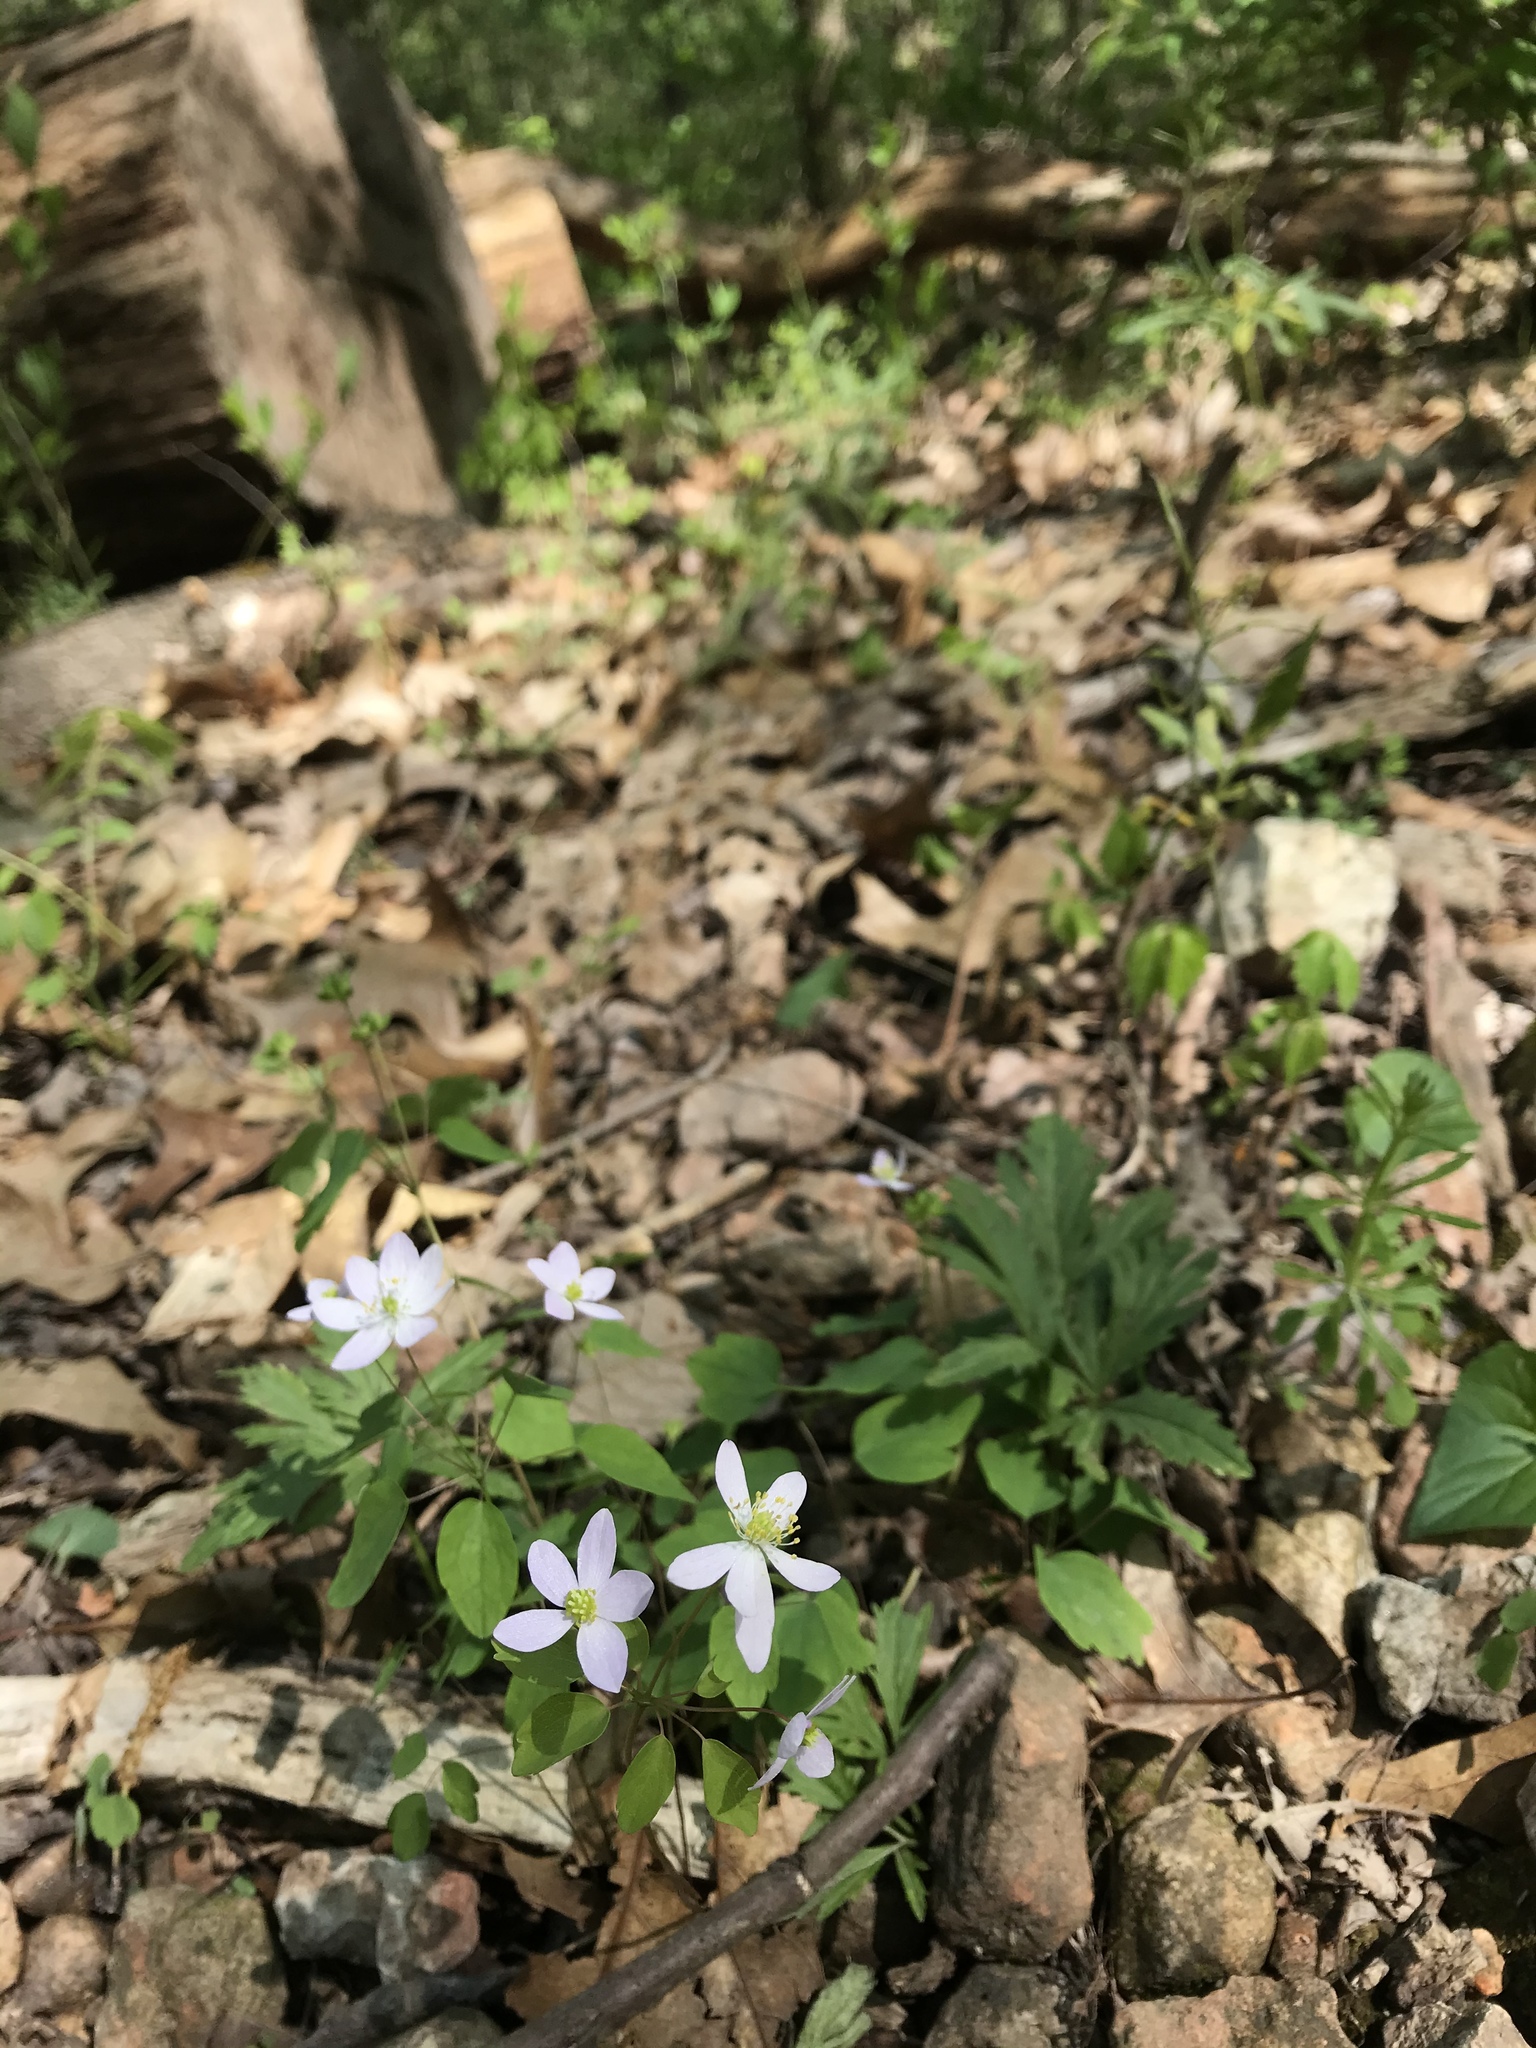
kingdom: Plantae
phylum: Tracheophyta
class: Magnoliopsida
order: Ranunculales
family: Ranunculaceae
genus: Thalictrum
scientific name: Thalictrum thalictroides
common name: Rue-anemone
